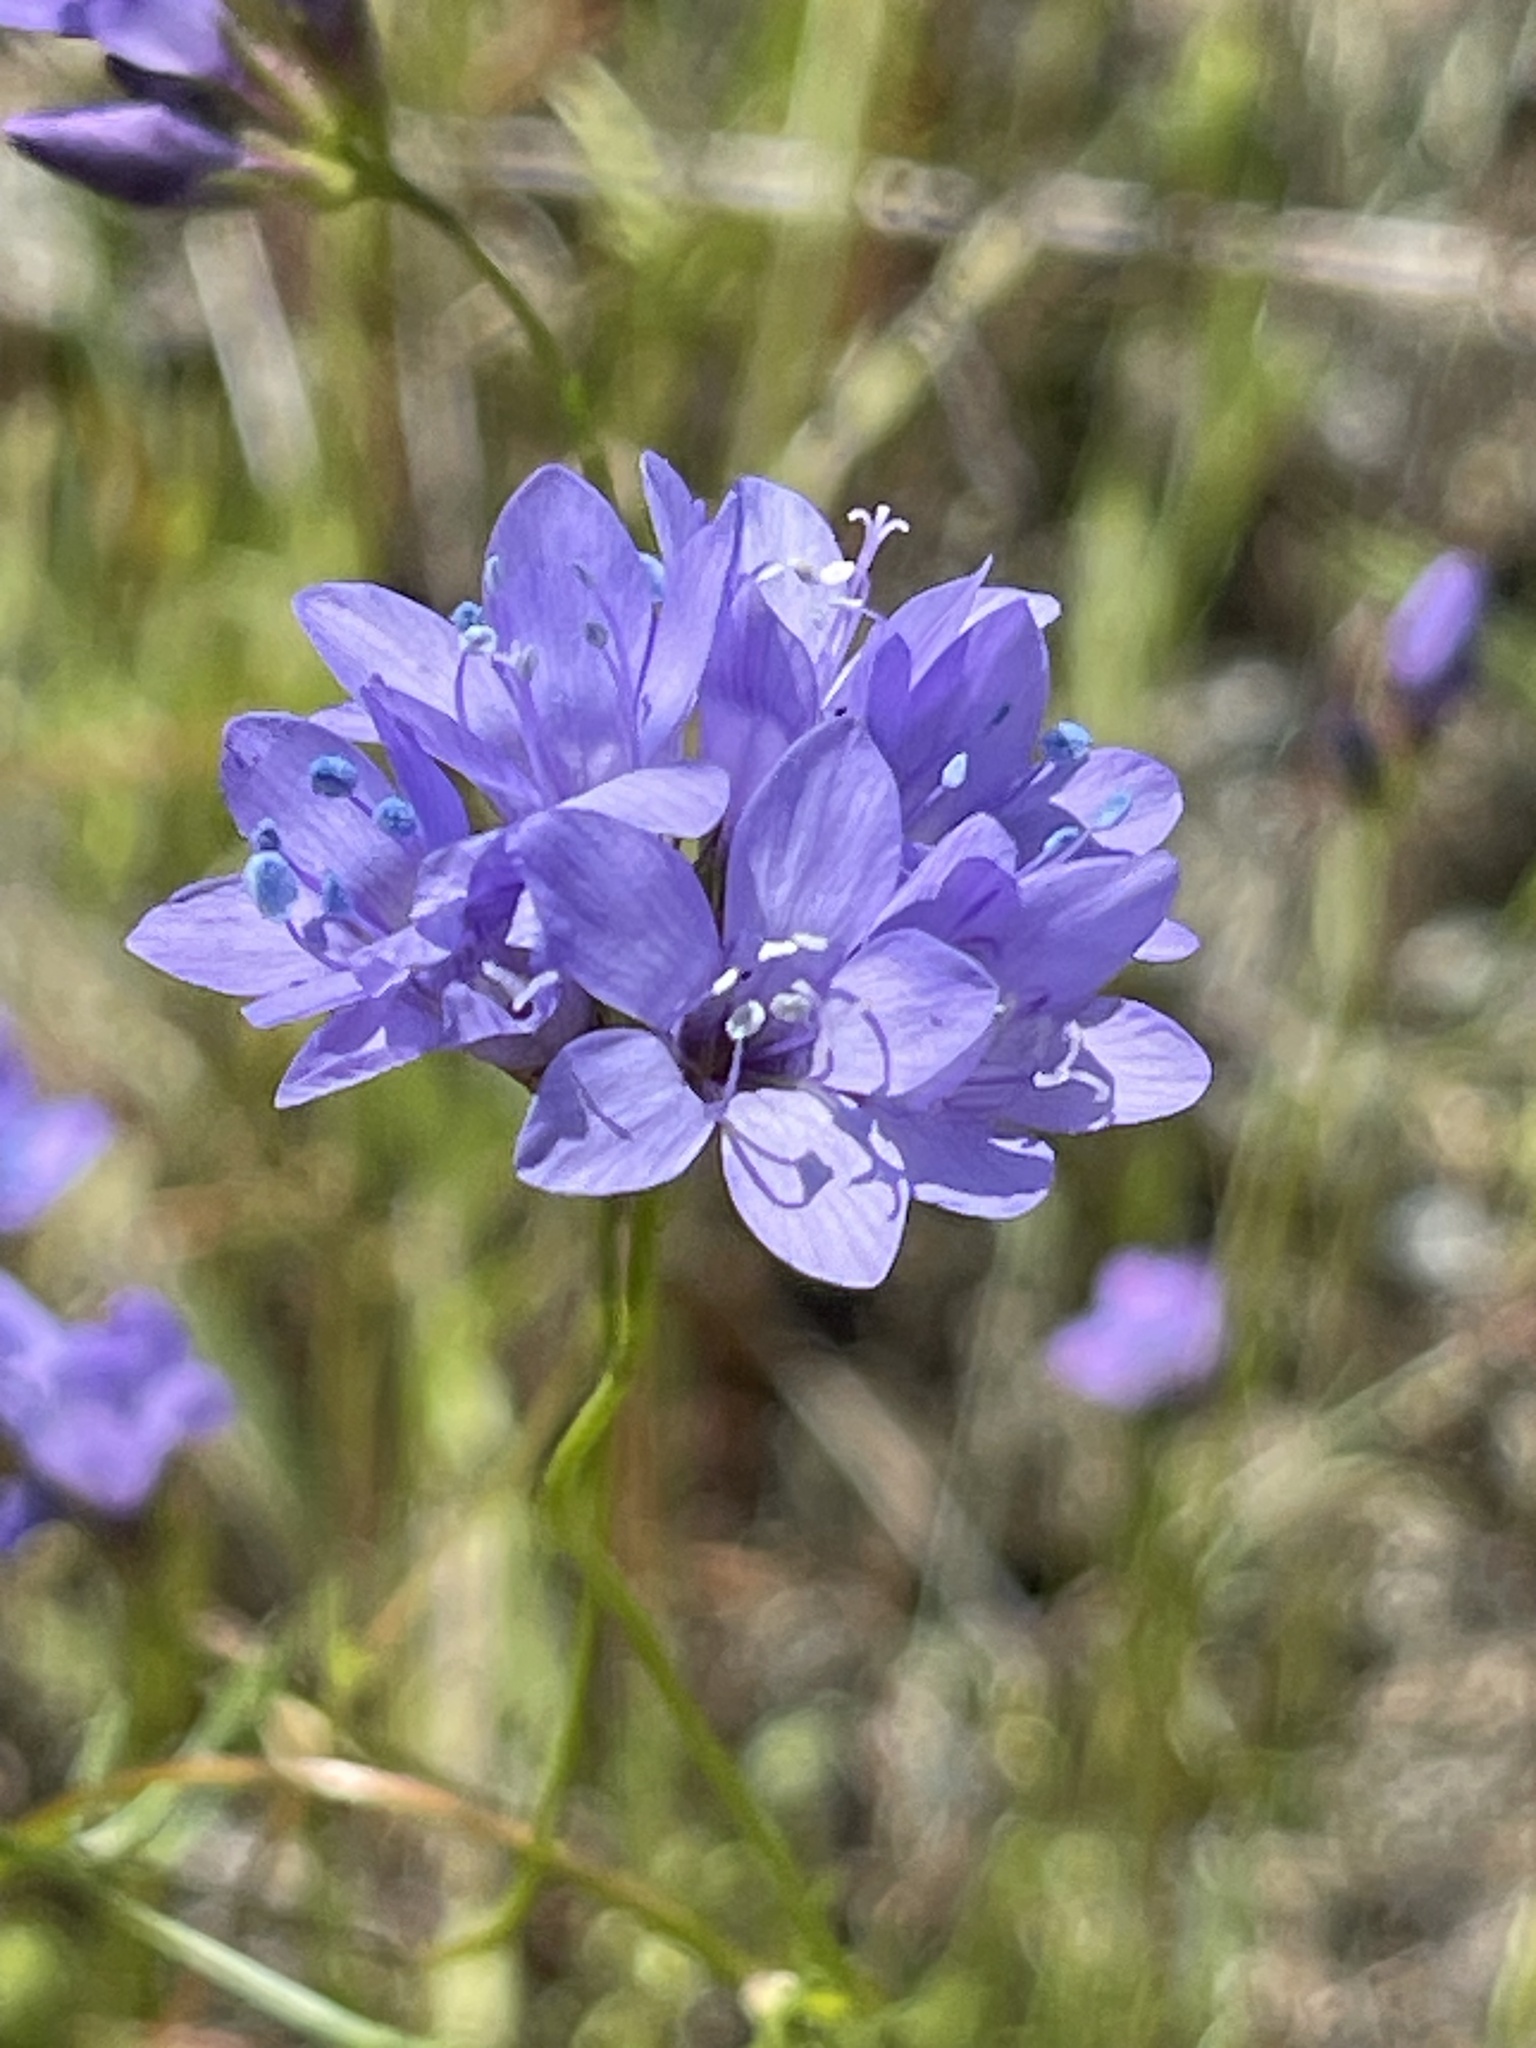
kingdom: Plantae
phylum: Tracheophyta
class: Magnoliopsida
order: Ericales
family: Polemoniaceae
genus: Gilia
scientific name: Gilia achilleifolia
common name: California gily-flower
